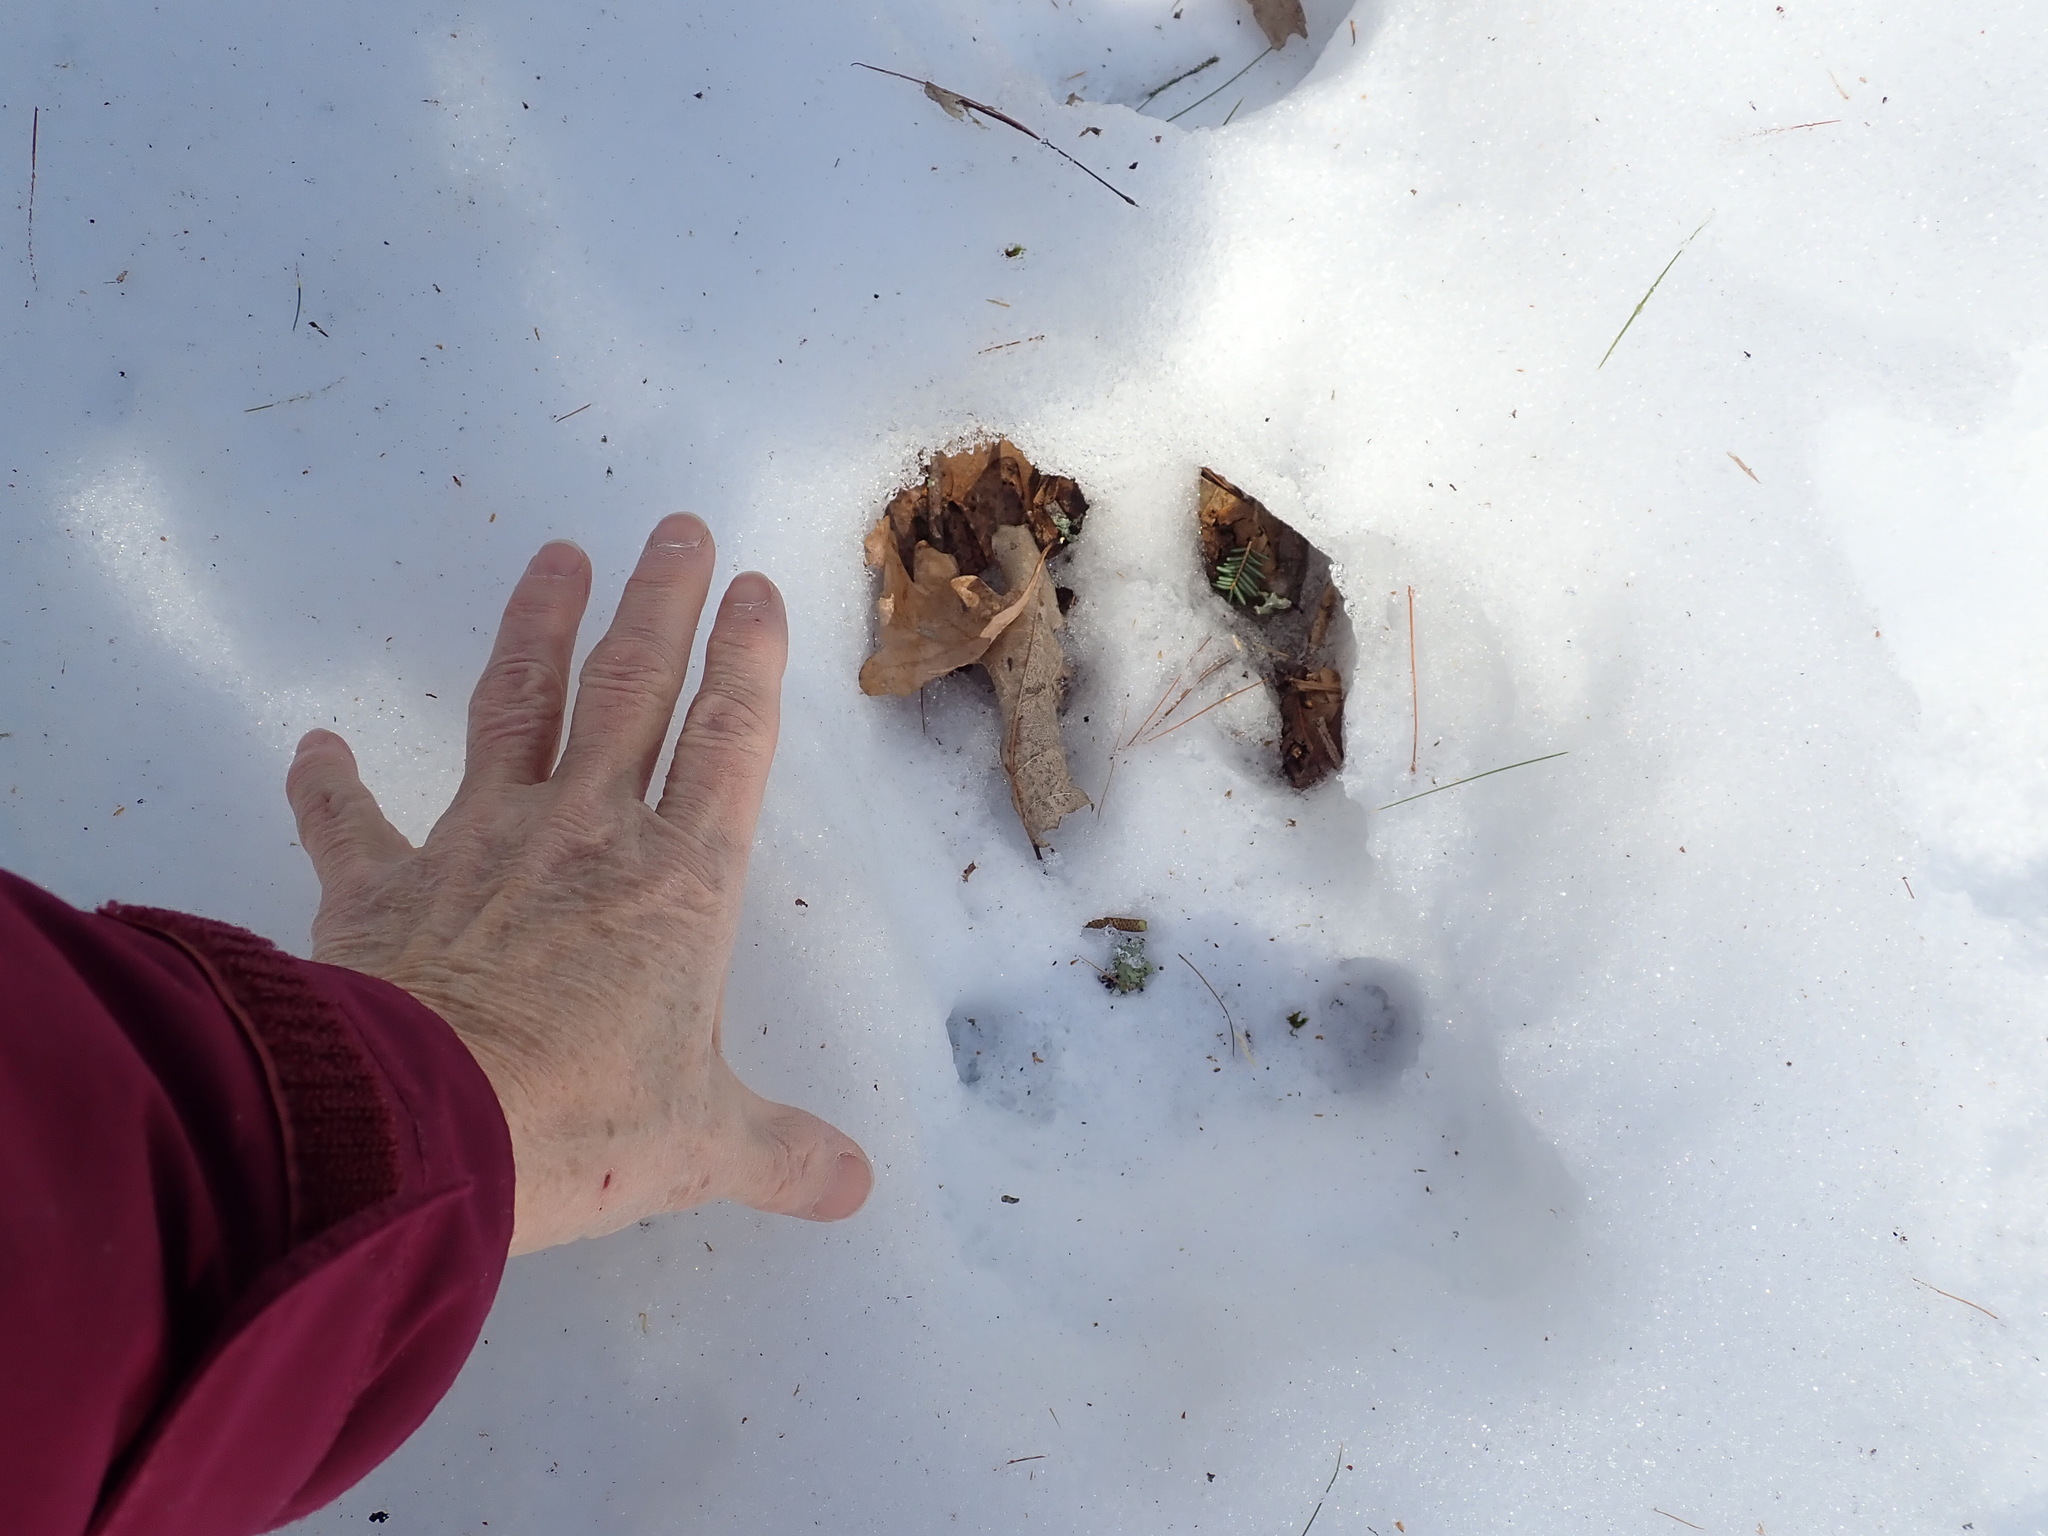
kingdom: Animalia
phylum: Chordata
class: Mammalia
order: Artiodactyla
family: Cervidae
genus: Alces
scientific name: Alces alces
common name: Moose
